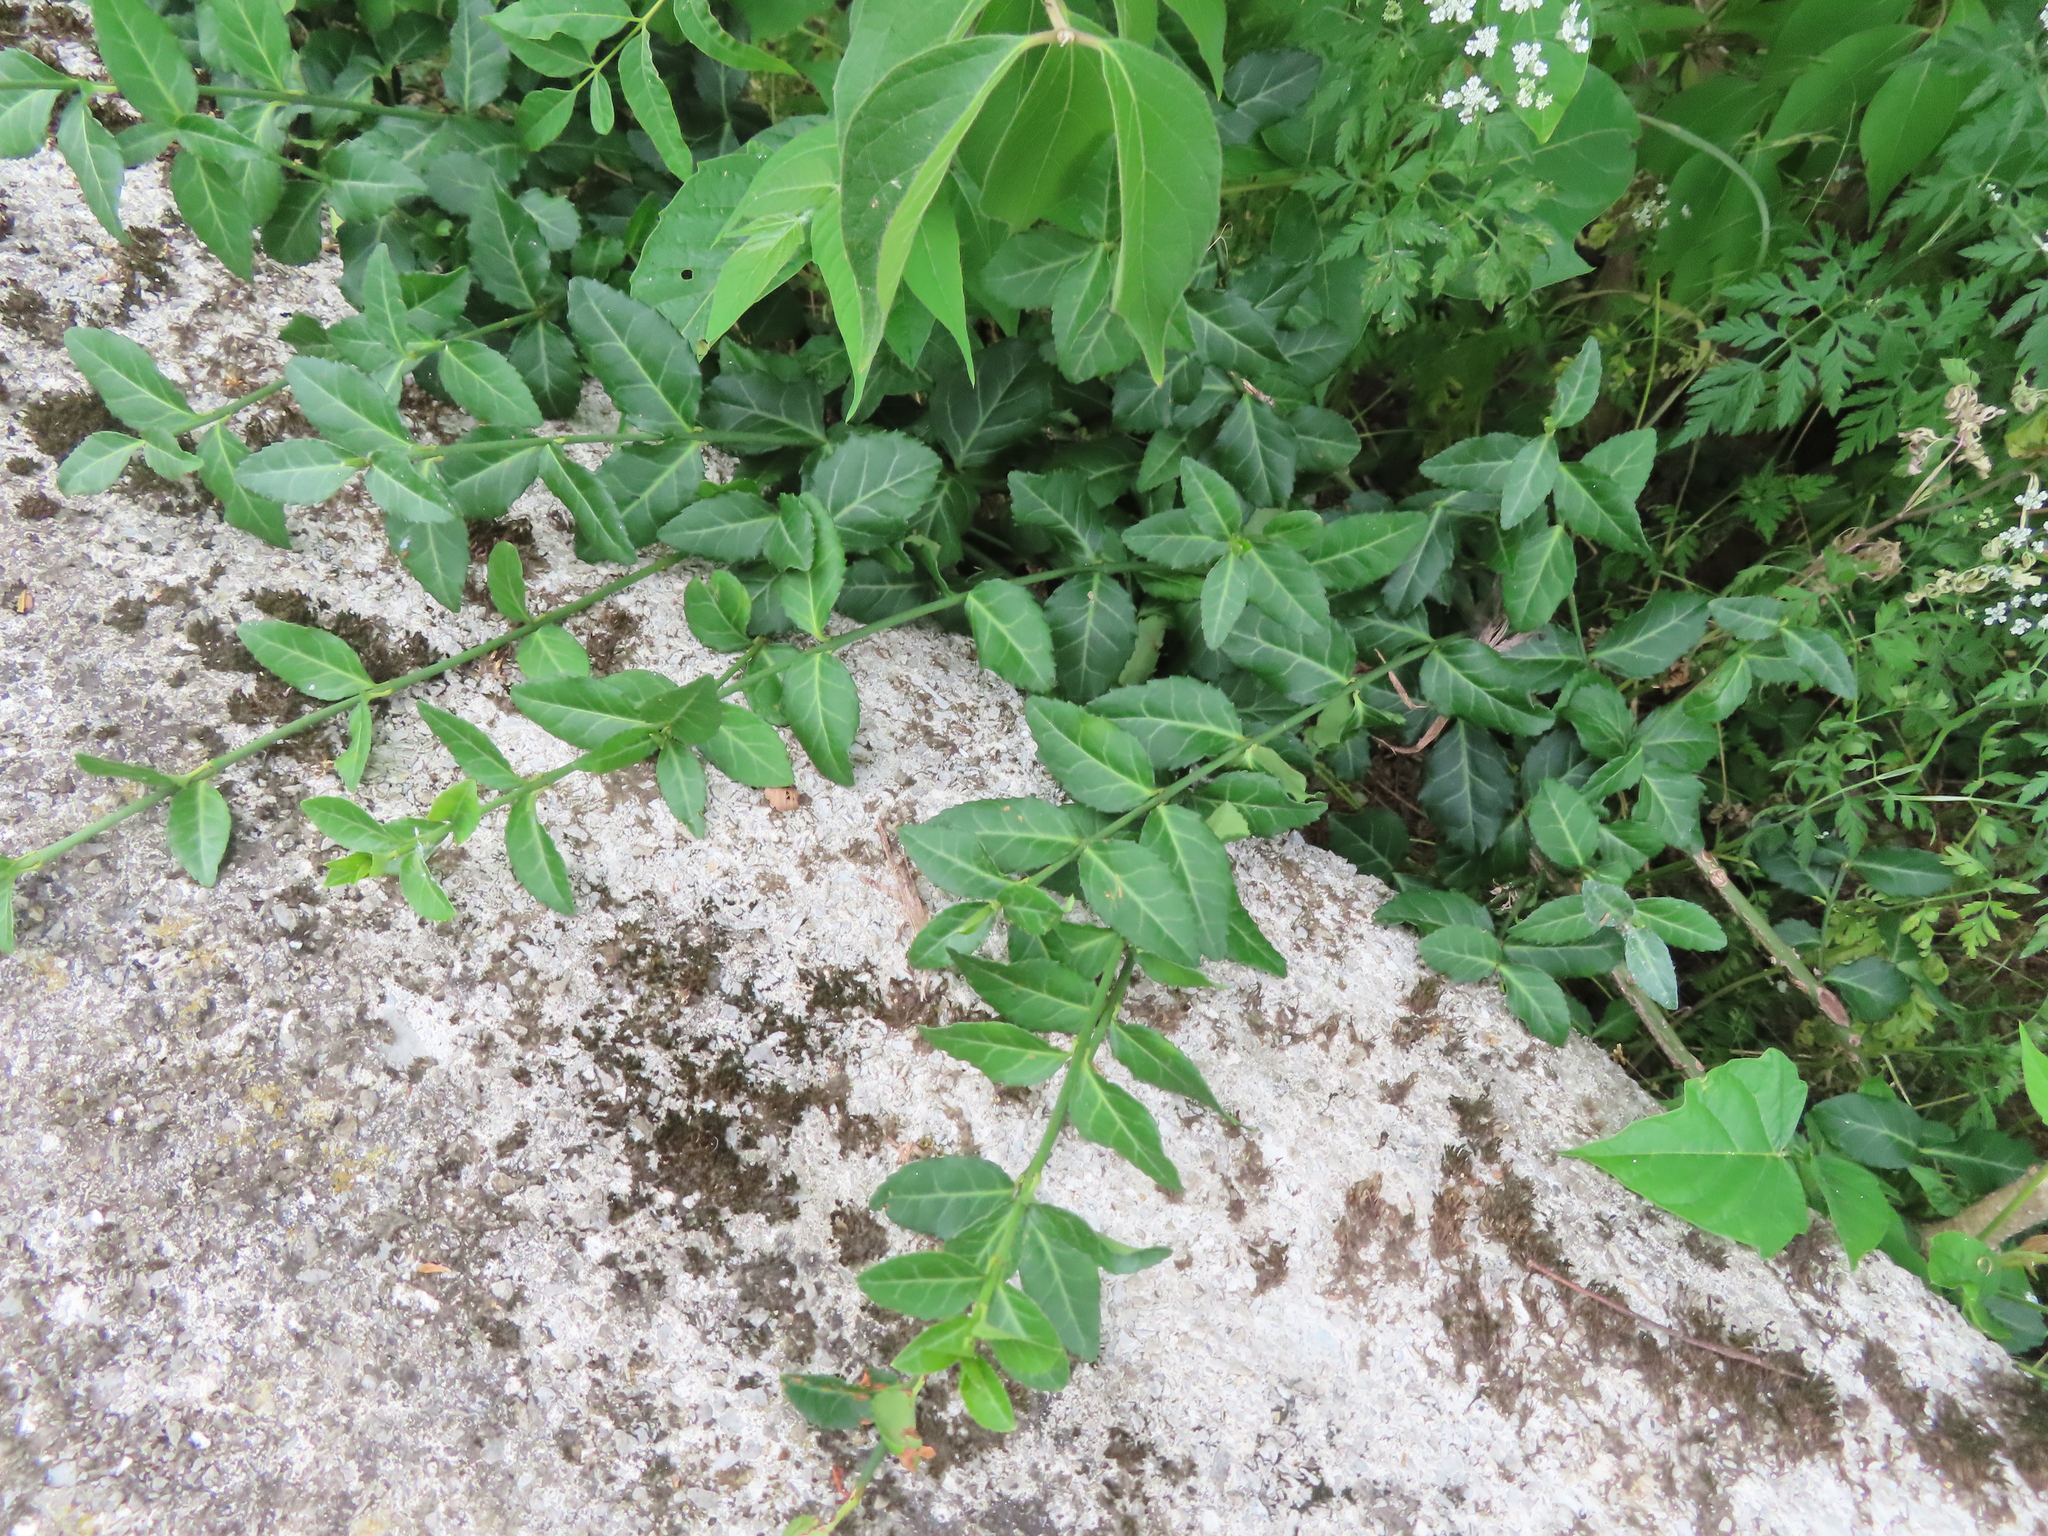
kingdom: Plantae
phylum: Tracheophyta
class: Magnoliopsida
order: Celastrales
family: Celastraceae
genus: Euonymus
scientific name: Euonymus fortunei
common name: Climbing euonymus
